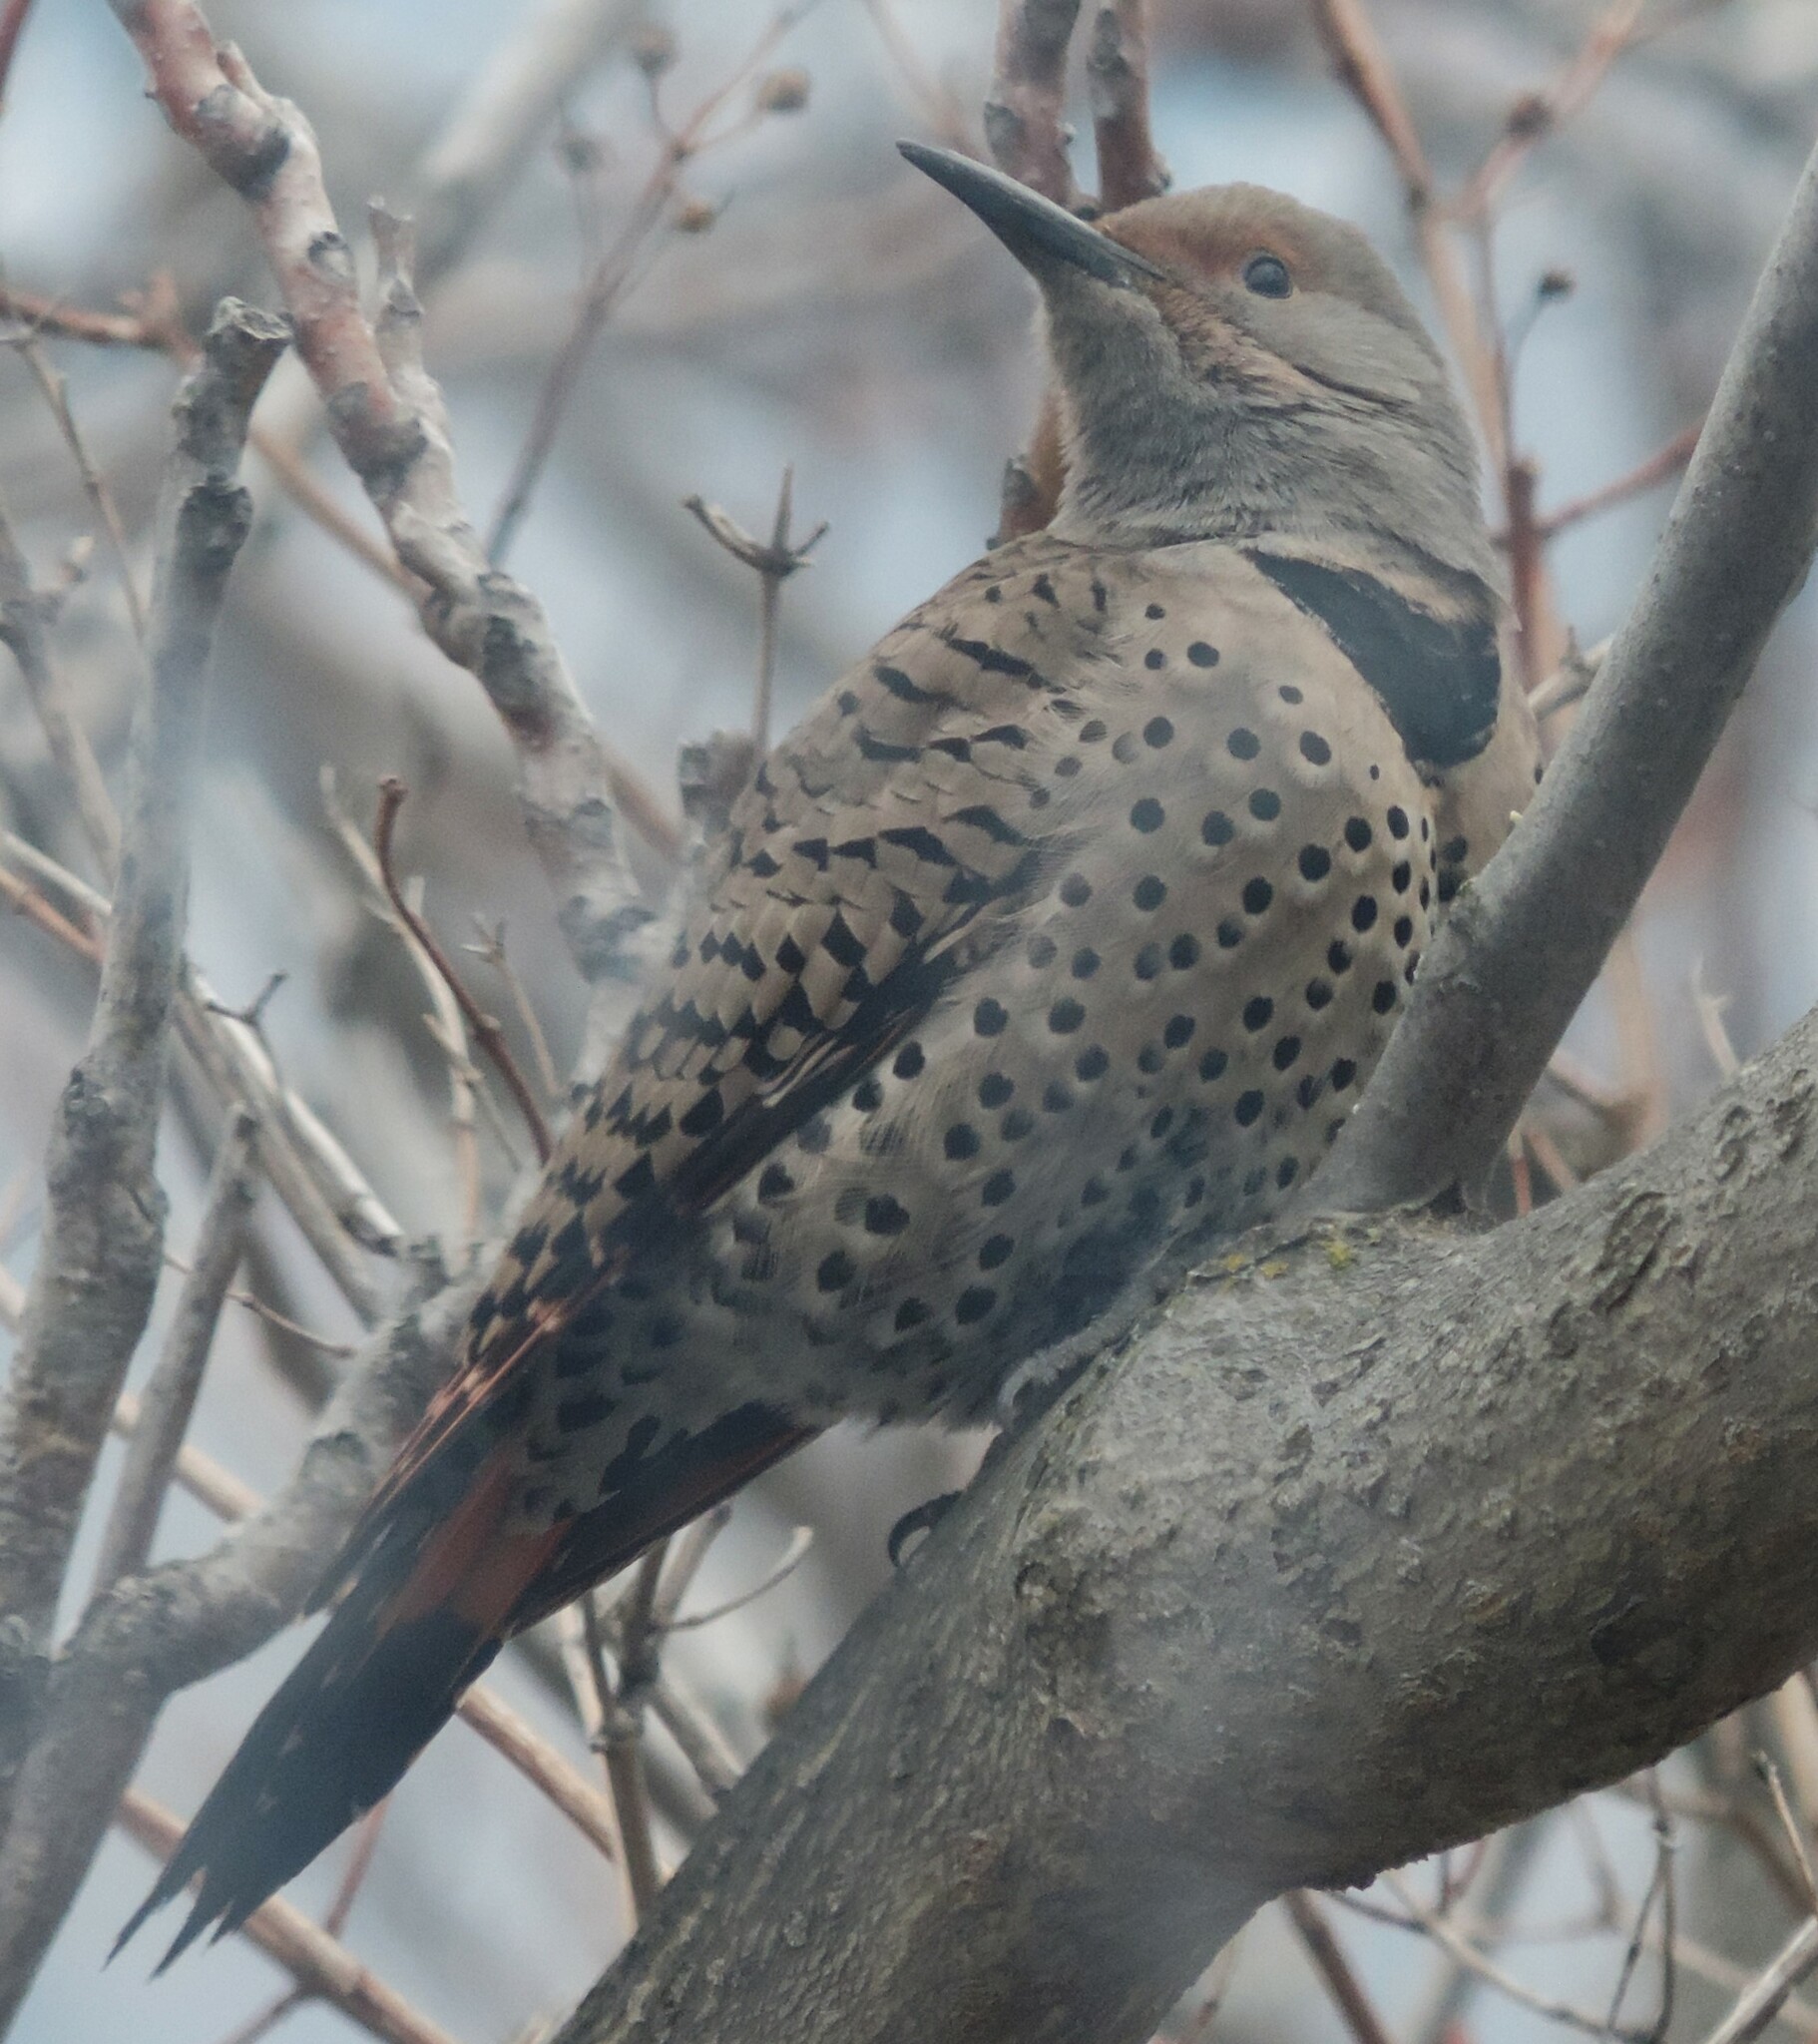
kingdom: Animalia
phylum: Chordata
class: Aves
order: Piciformes
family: Picidae
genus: Colaptes
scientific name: Colaptes auratus
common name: Northern flicker
